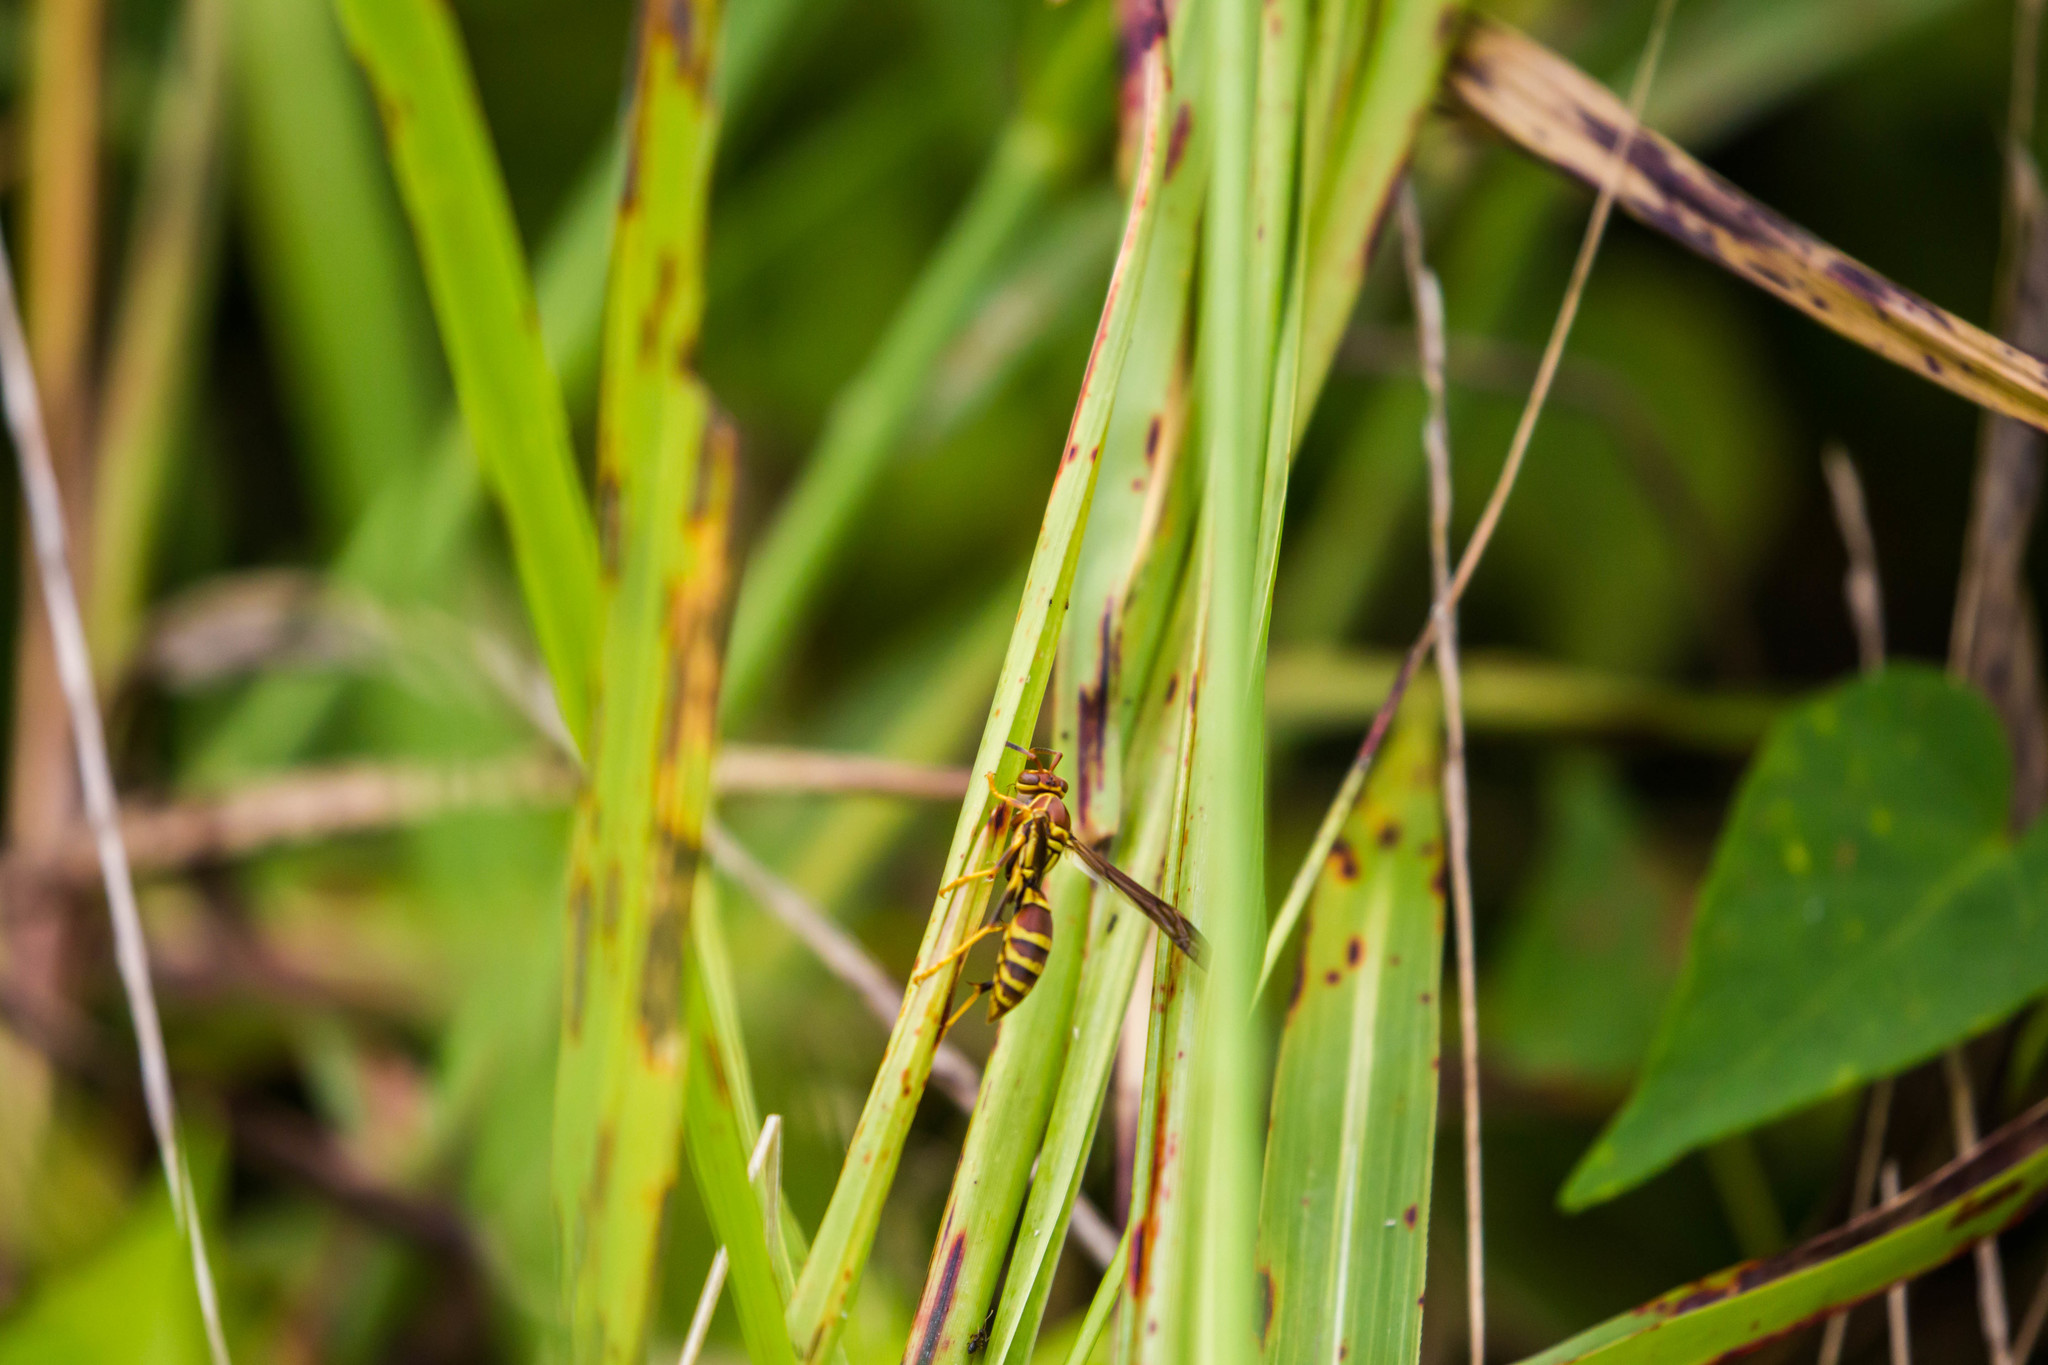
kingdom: Animalia
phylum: Arthropoda
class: Insecta
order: Hymenoptera
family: Eumenidae
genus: Polistes
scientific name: Polistes exclamans
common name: Paper wasp
